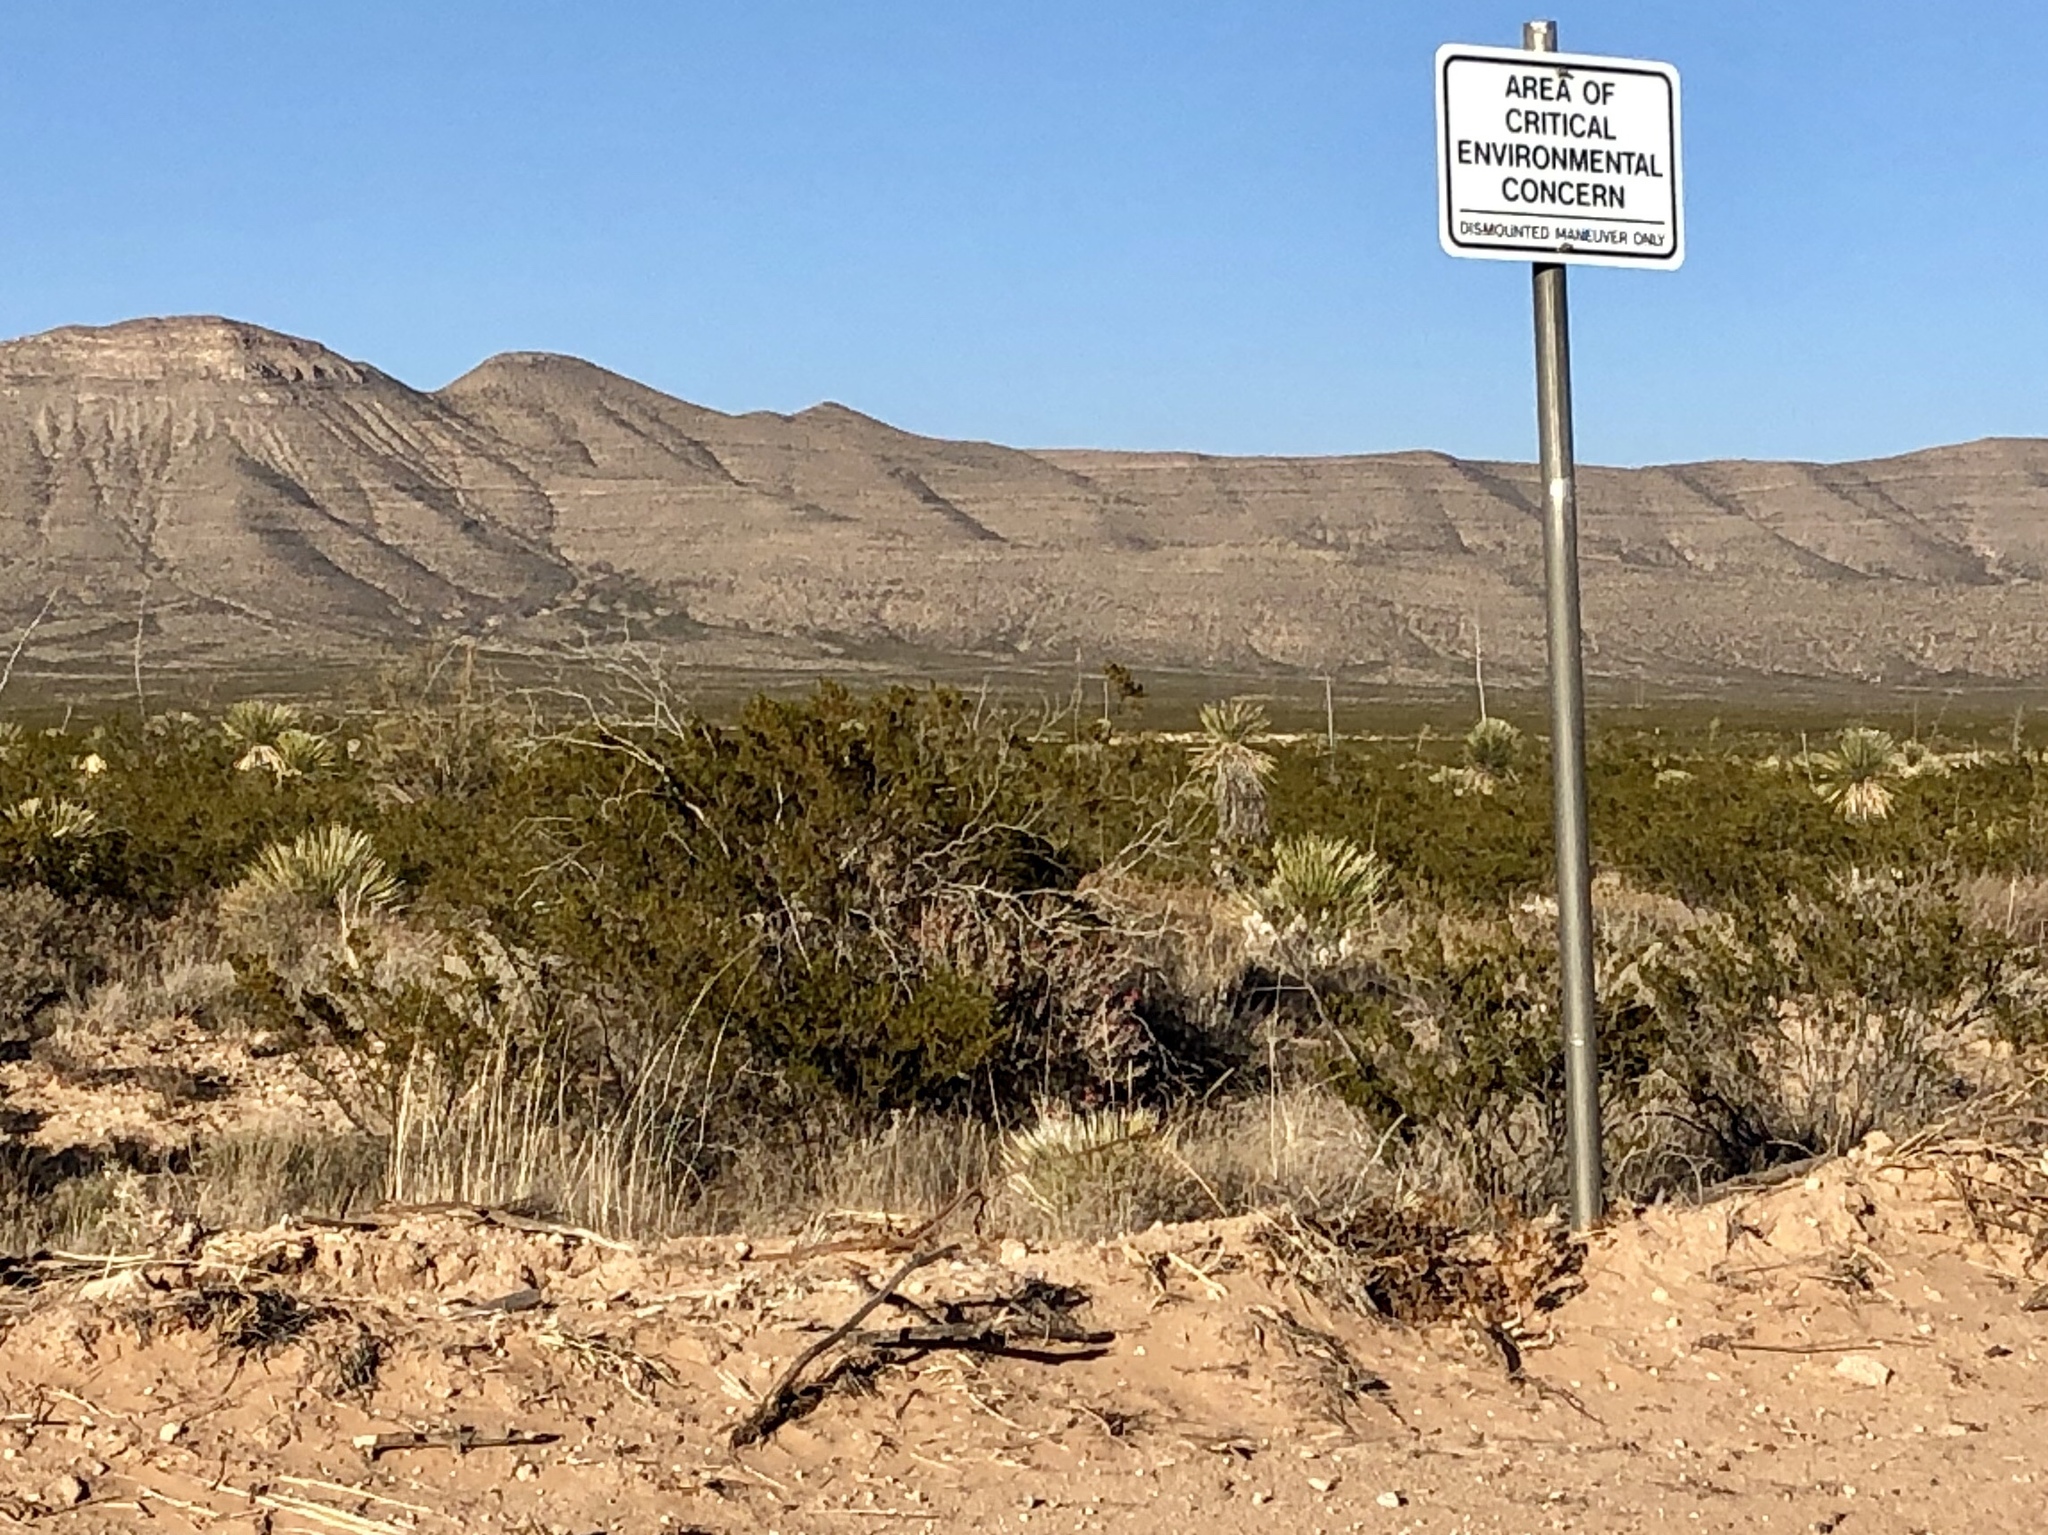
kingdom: Plantae
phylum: Tracheophyta
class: Magnoliopsida
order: Zygophyllales
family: Zygophyllaceae
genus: Larrea
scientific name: Larrea tridentata
